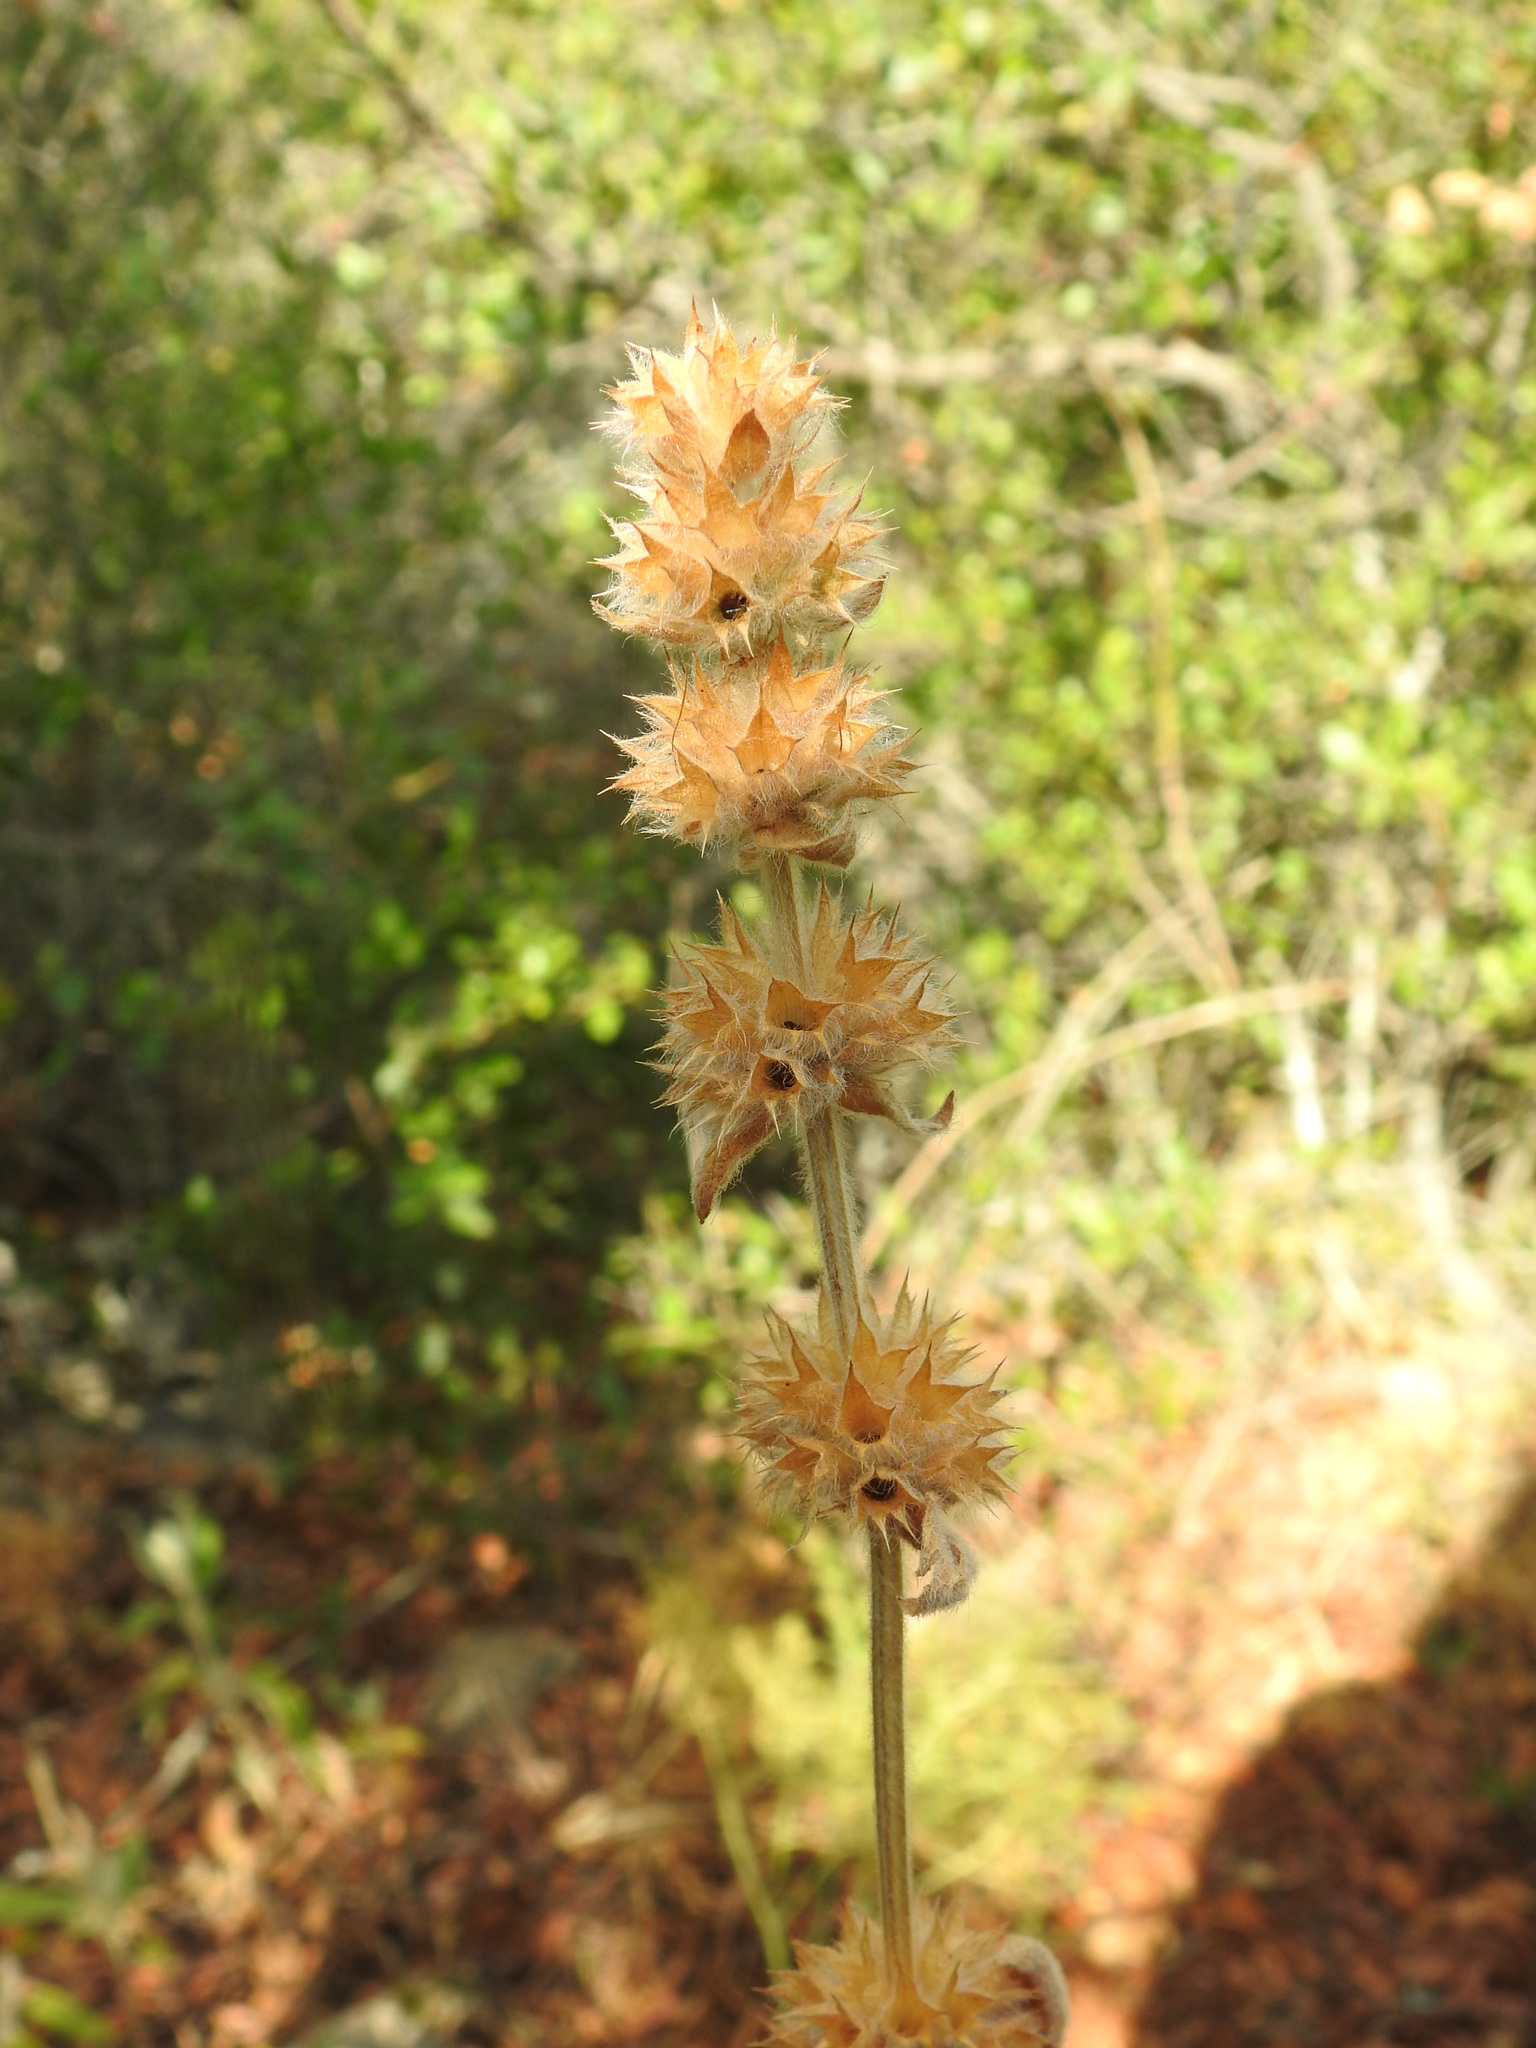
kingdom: Plantae
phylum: Tracheophyta
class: Magnoliopsida
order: Lamiales
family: Lamiaceae
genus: Stachys
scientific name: Stachys germanica
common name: Downy woundwort
